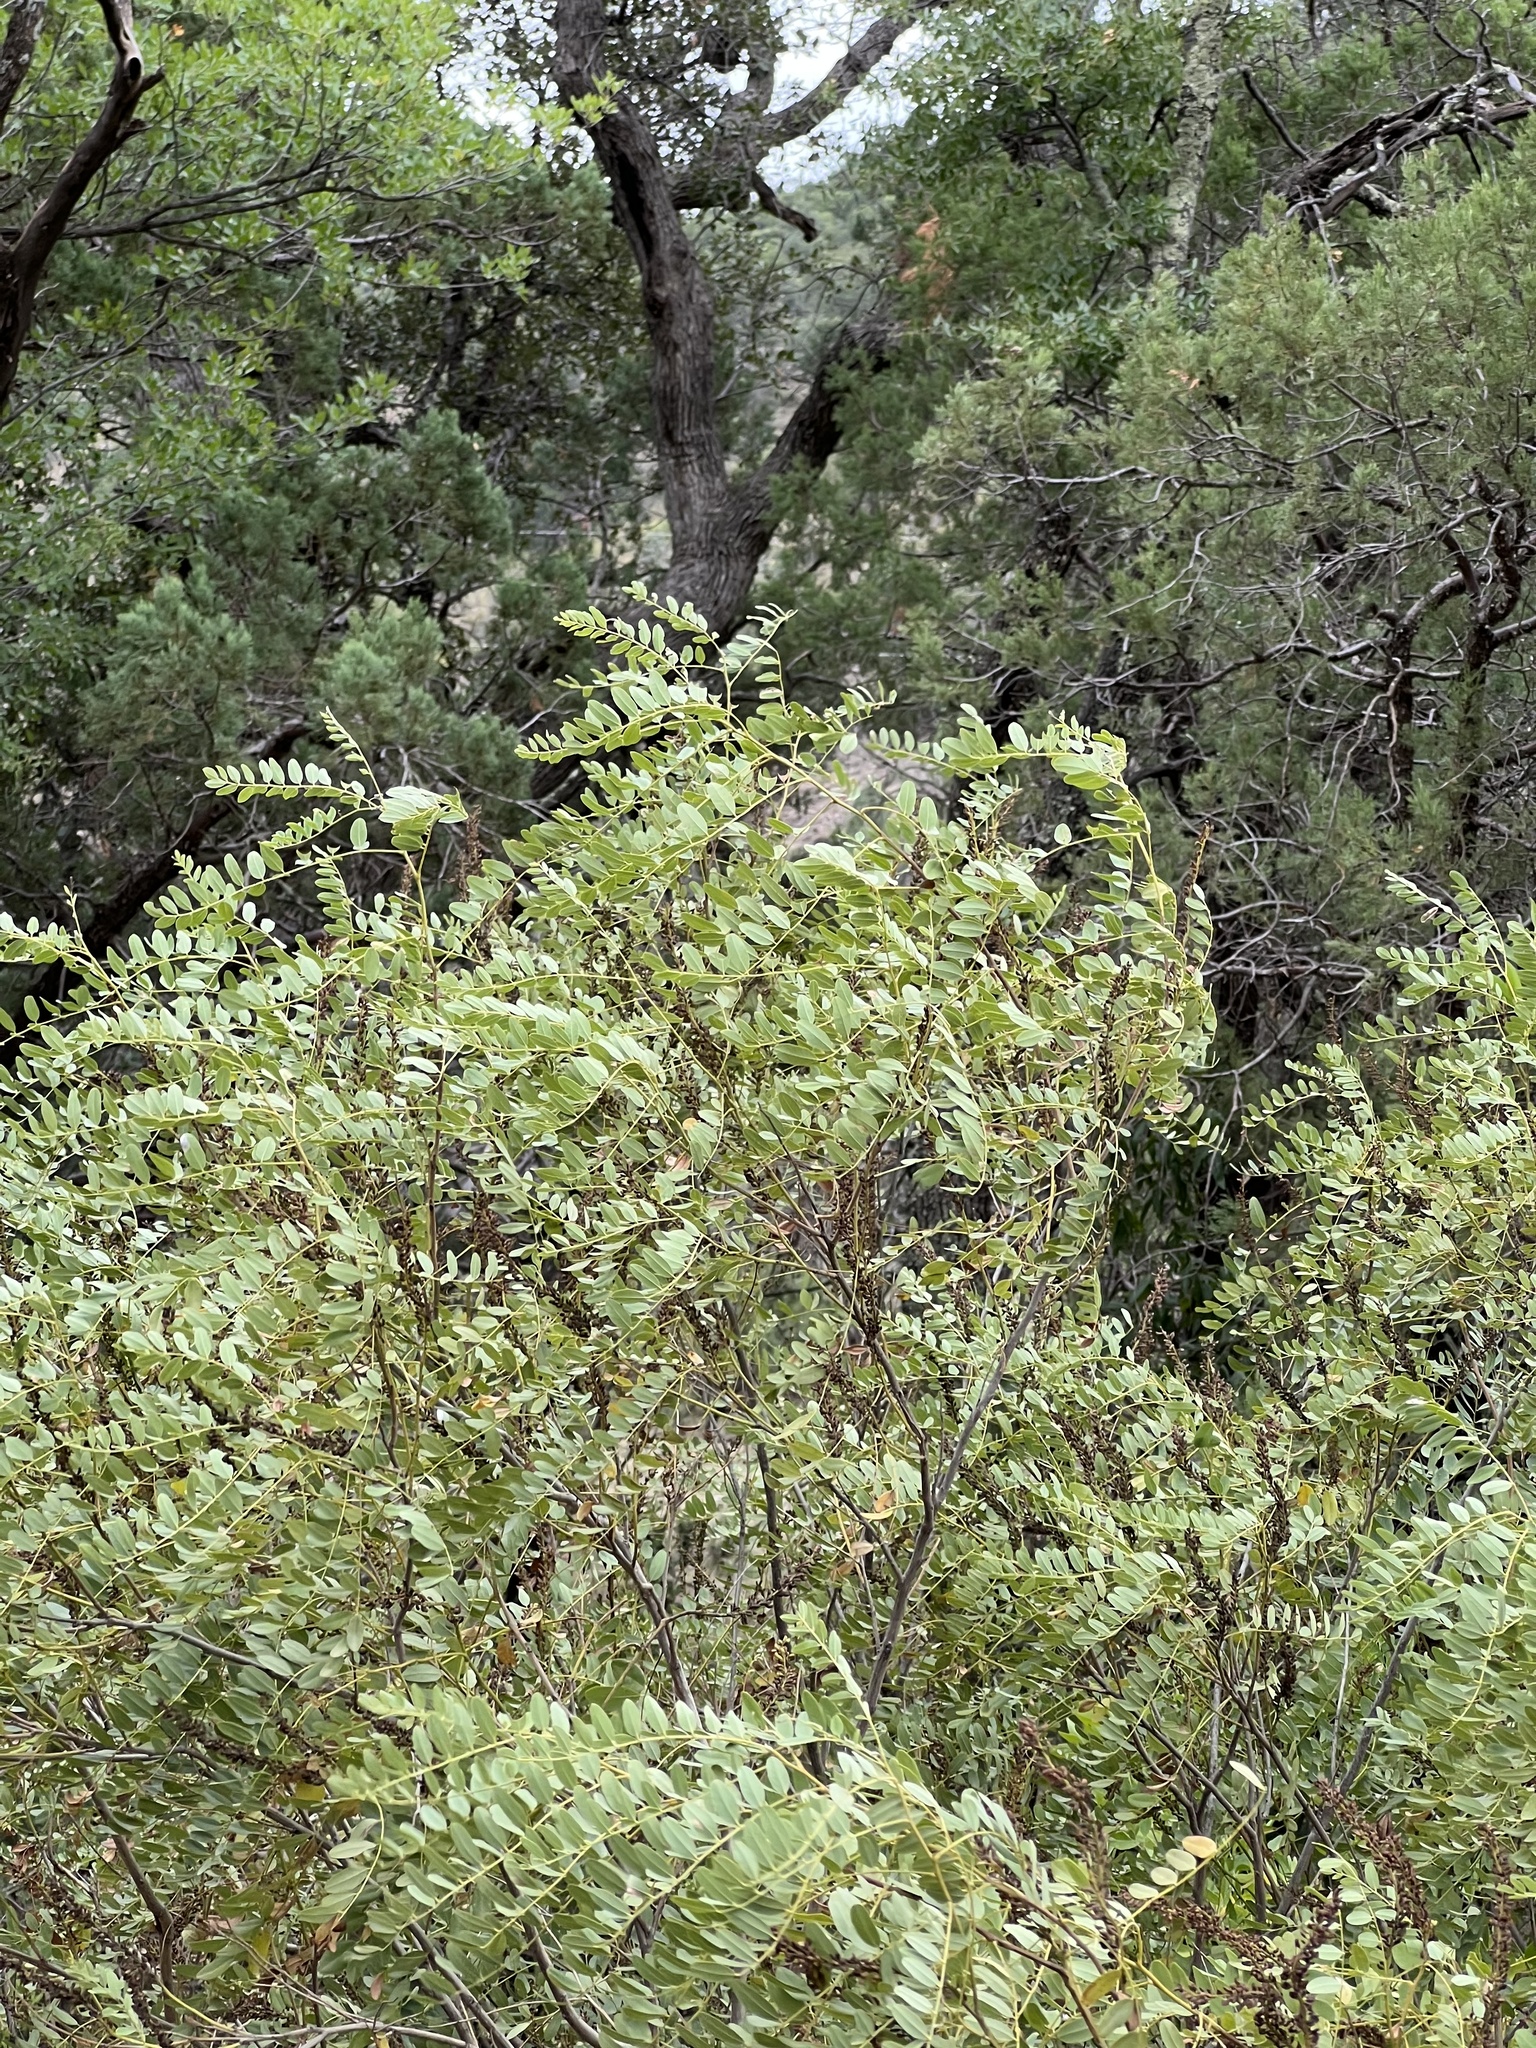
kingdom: Plantae
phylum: Tracheophyta
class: Magnoliopsida
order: Fabales
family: Fabaceae
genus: Robinia
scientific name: Robinia neomexicana
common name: New mexico locust
